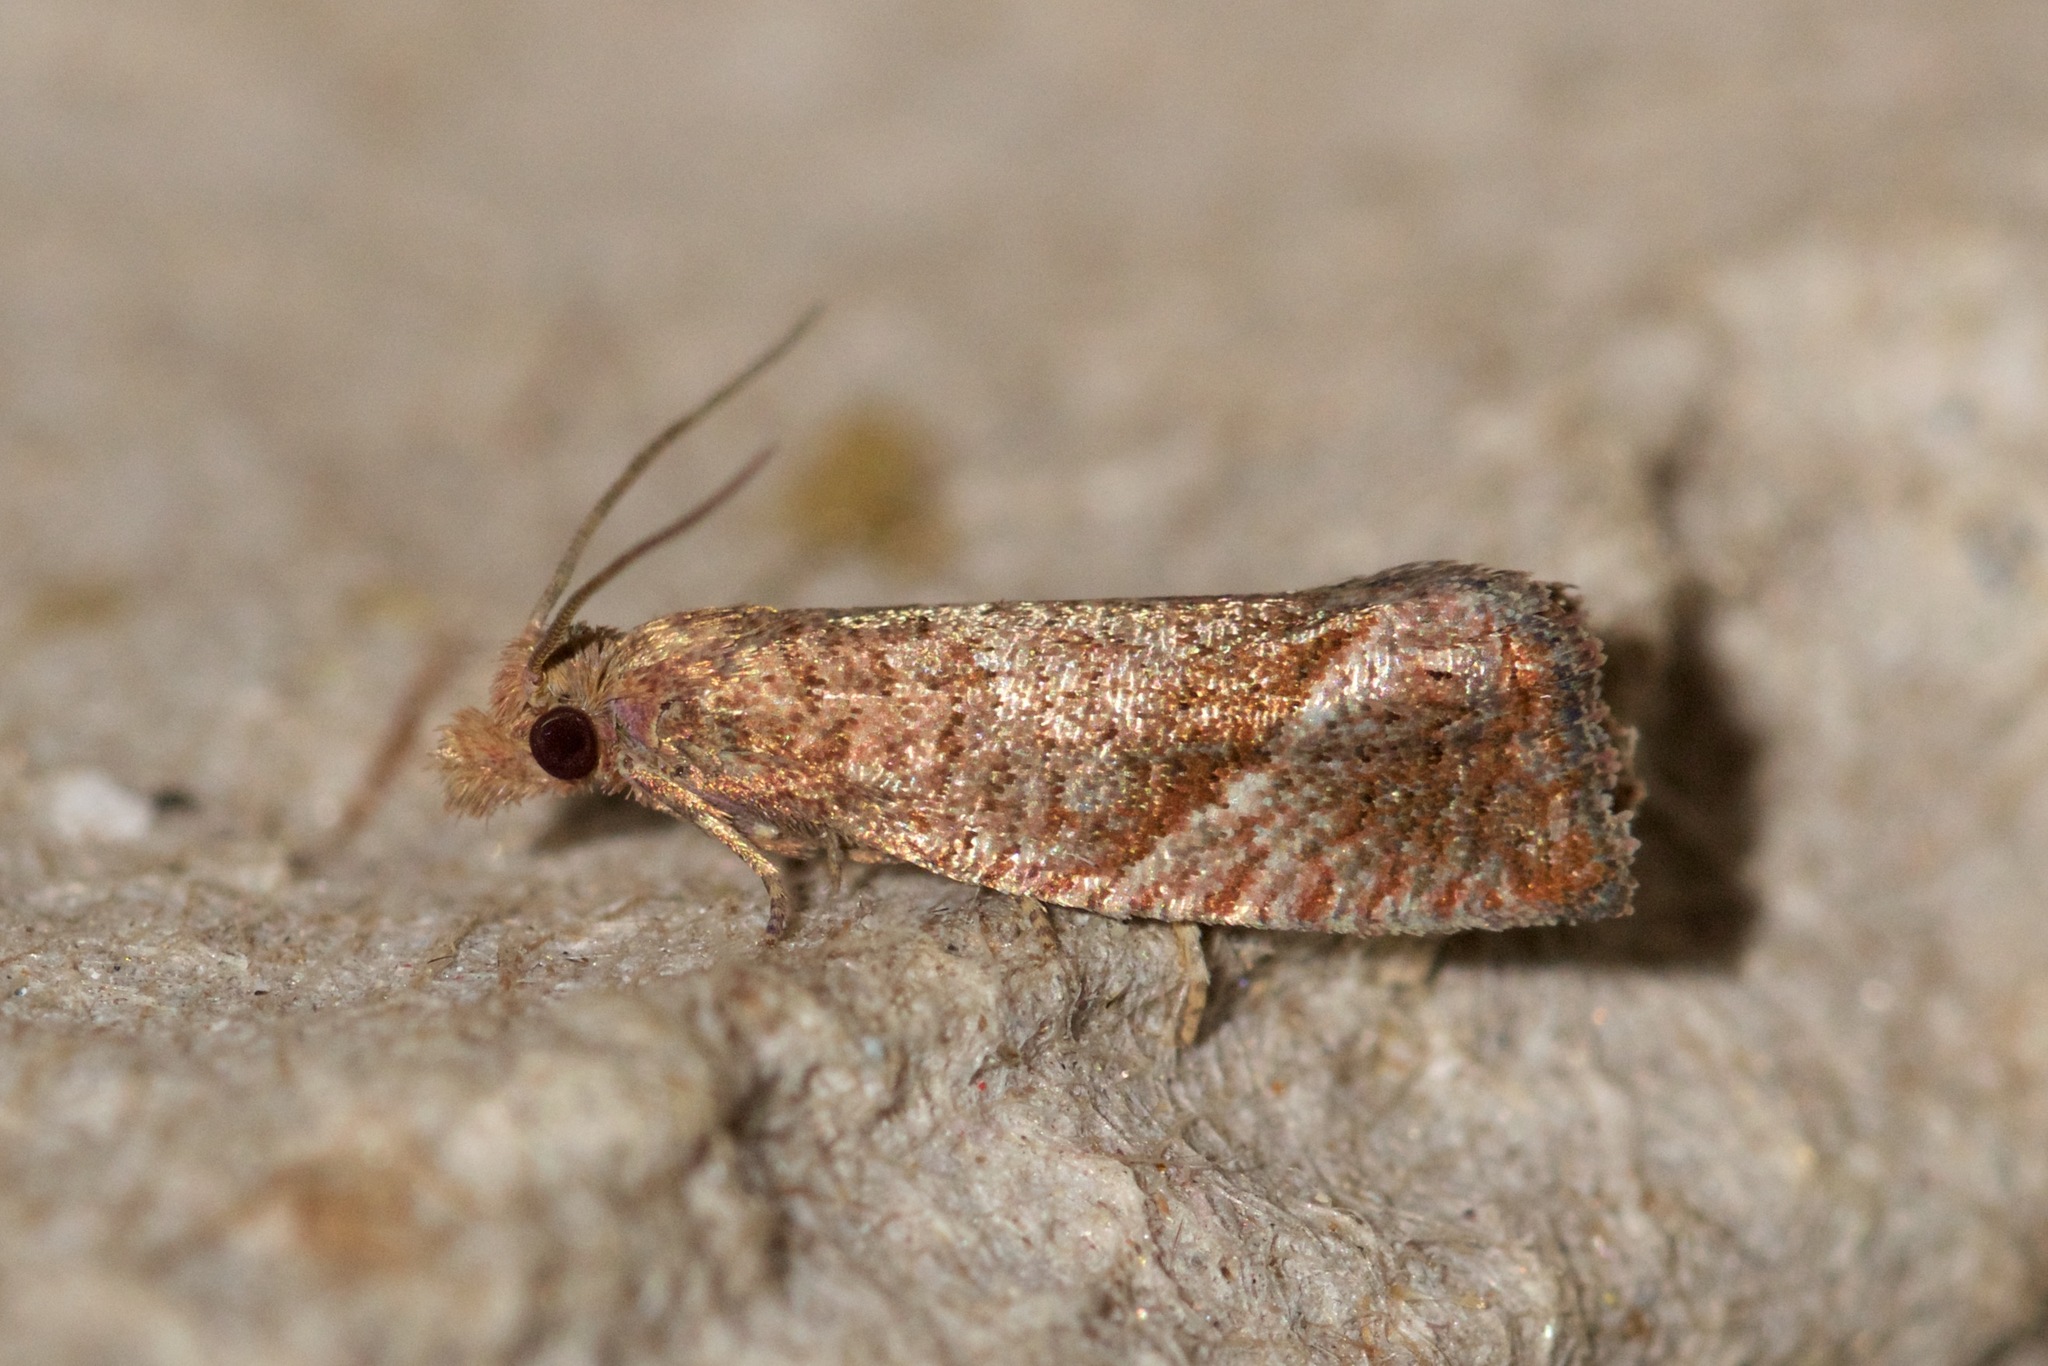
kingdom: Animalia
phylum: Arthropoda
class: Insecta
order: Lepidoptera
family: Tortricidae
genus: Pelochrista
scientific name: Pelochrista derelicta
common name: Derelict pelochrista moth
